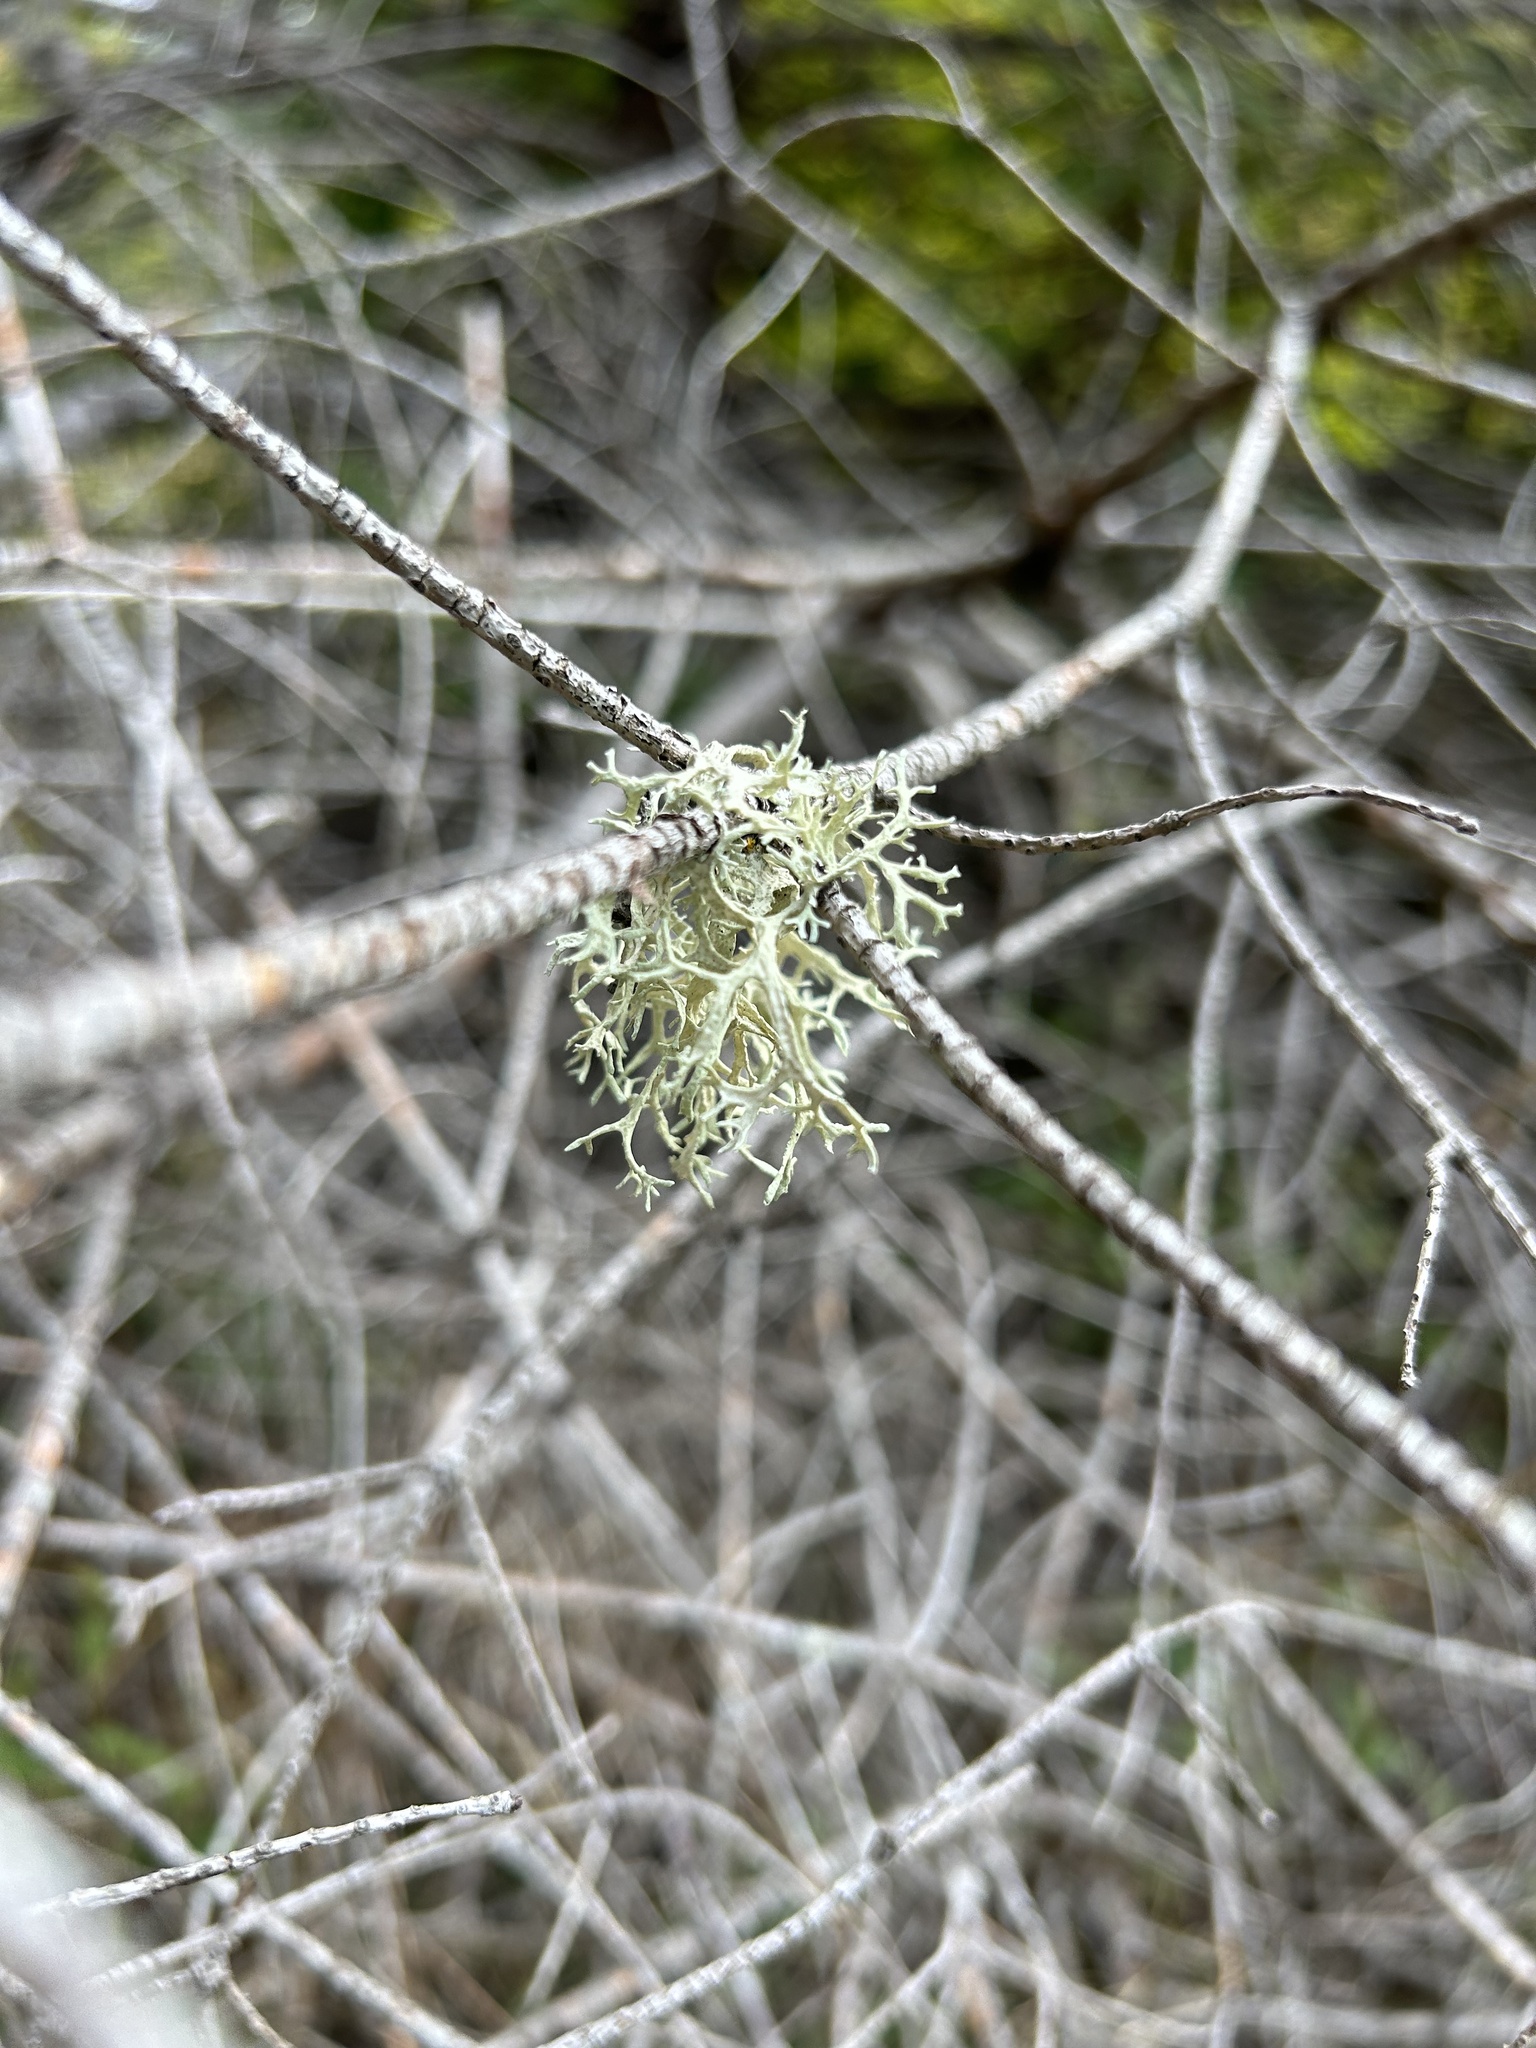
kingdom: Fungi
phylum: Ascomycota
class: Lecanoromycetes
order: Lecanorales
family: Parmeliaceae
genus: Evernia
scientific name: Evernia prunastri
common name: Oak moss
